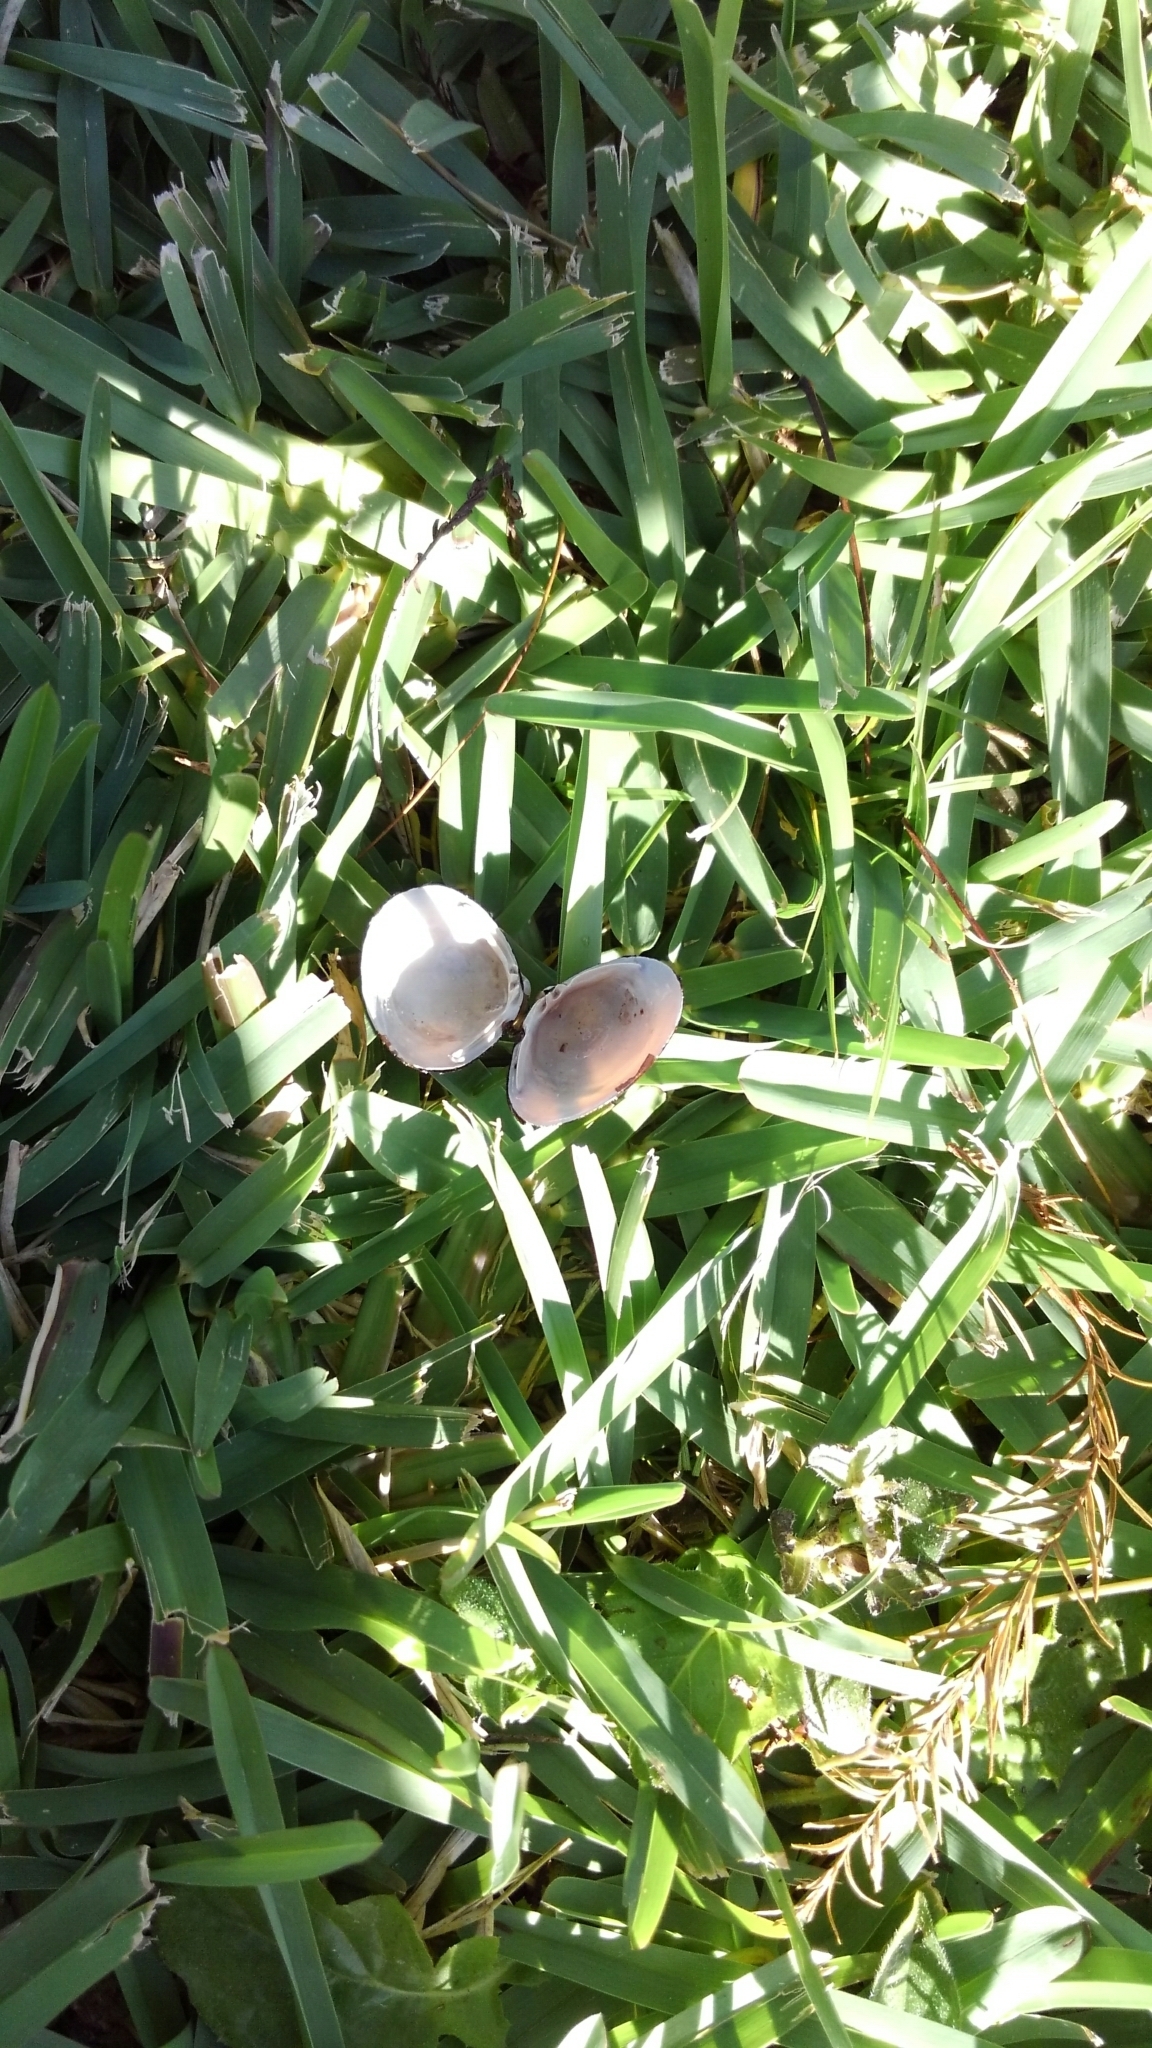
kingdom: Animalia
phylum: Mollusca
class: Bivalvia
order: Venerida
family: Cyrenidae
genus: Corbicula
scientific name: Corbicula fluminea
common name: Asian clam
